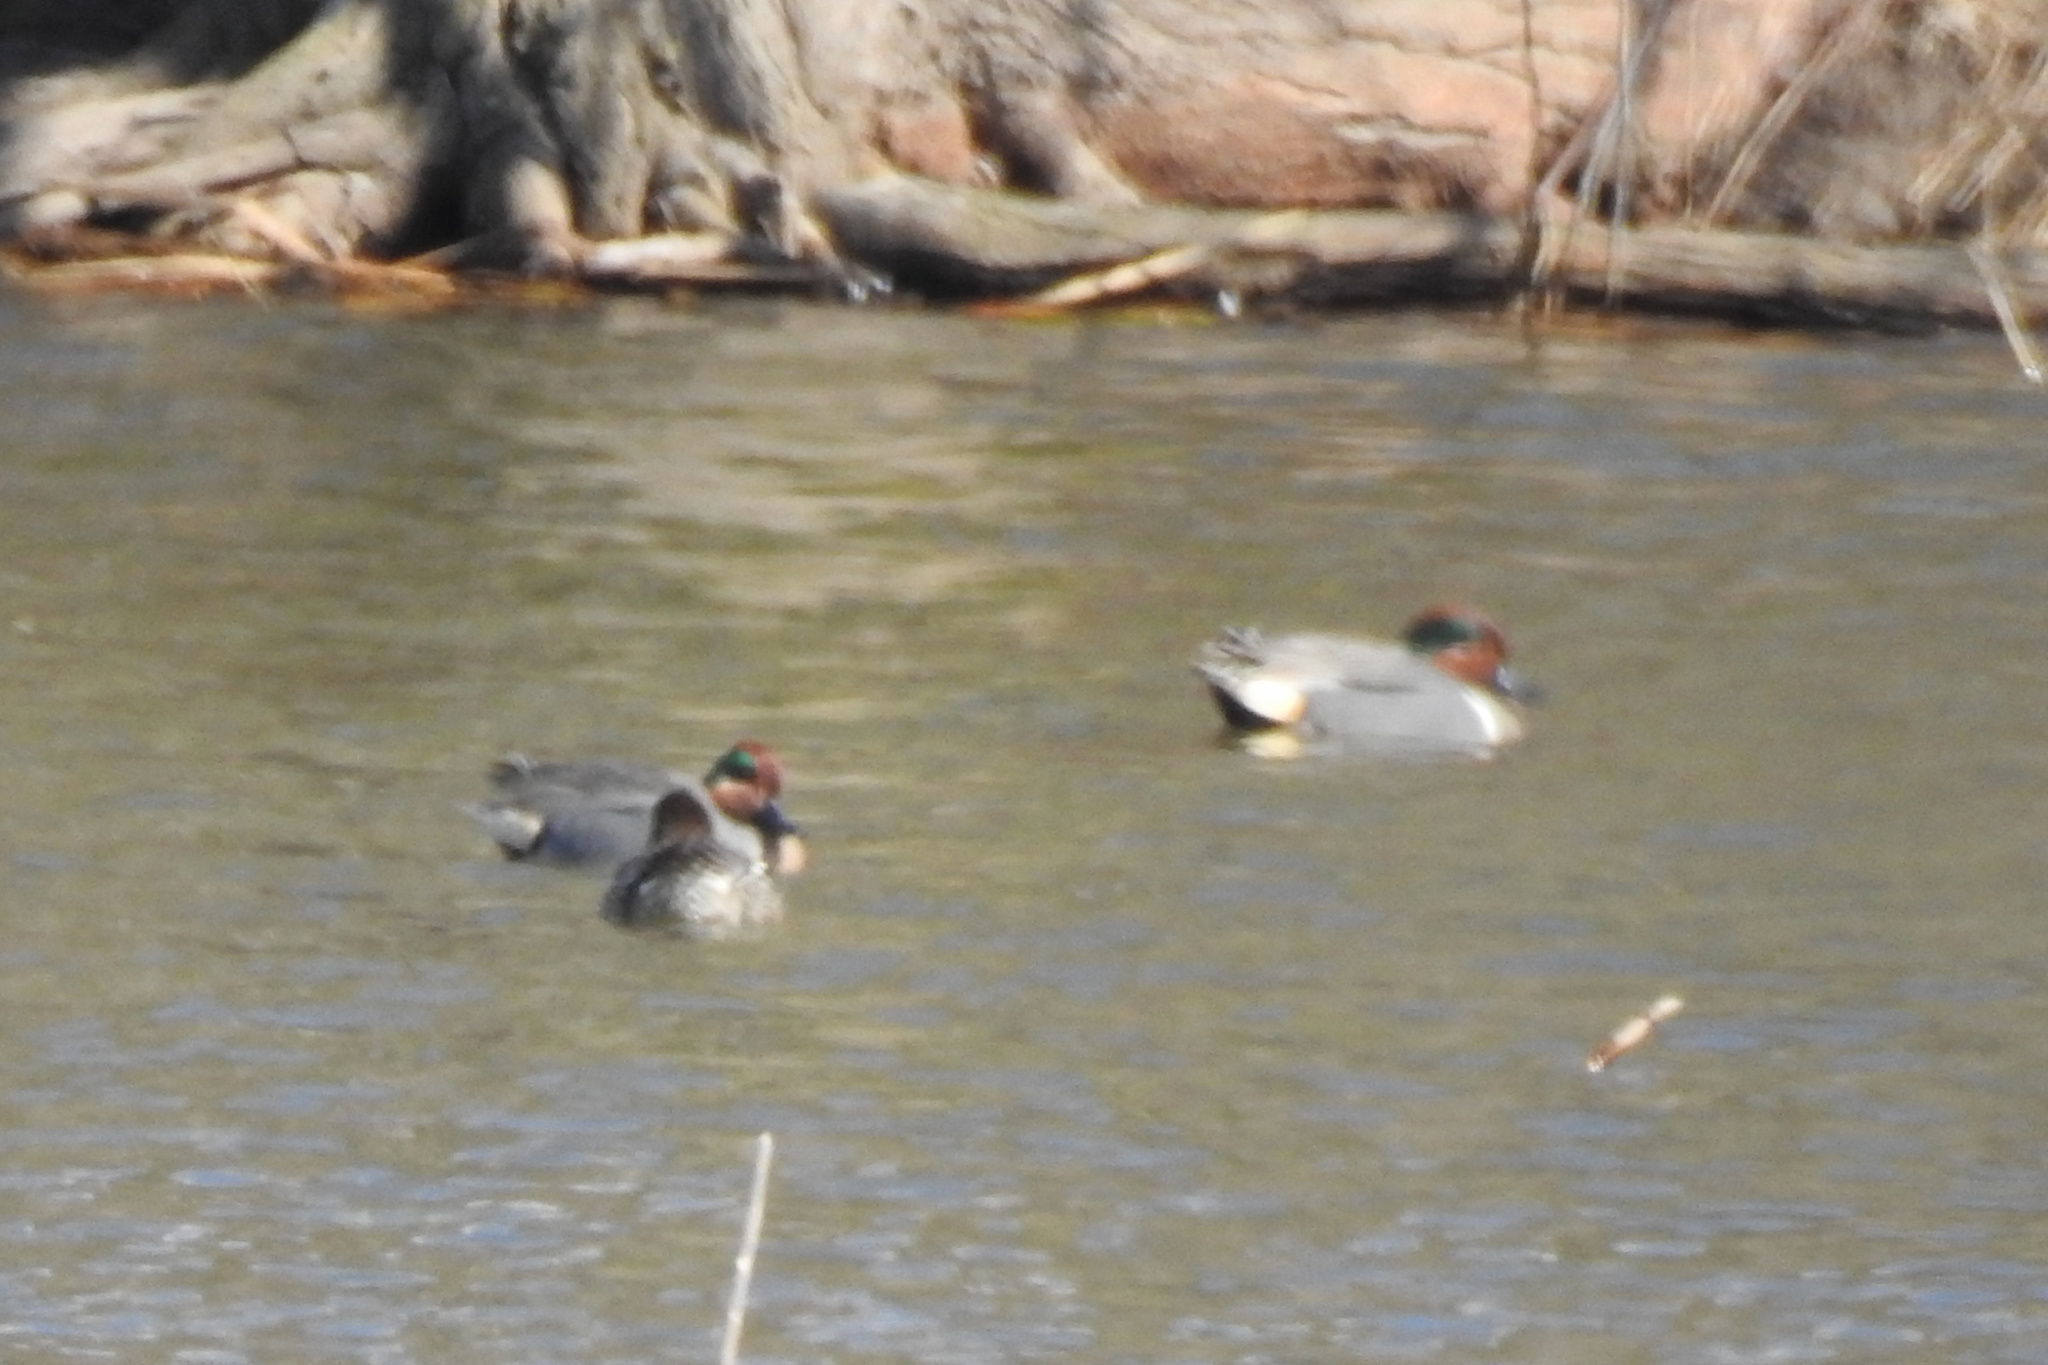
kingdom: Animalia
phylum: Chordata
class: Aves
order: Anseriformes
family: Anatidae
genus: Anas
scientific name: Anas crecca
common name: Eurasian teal
